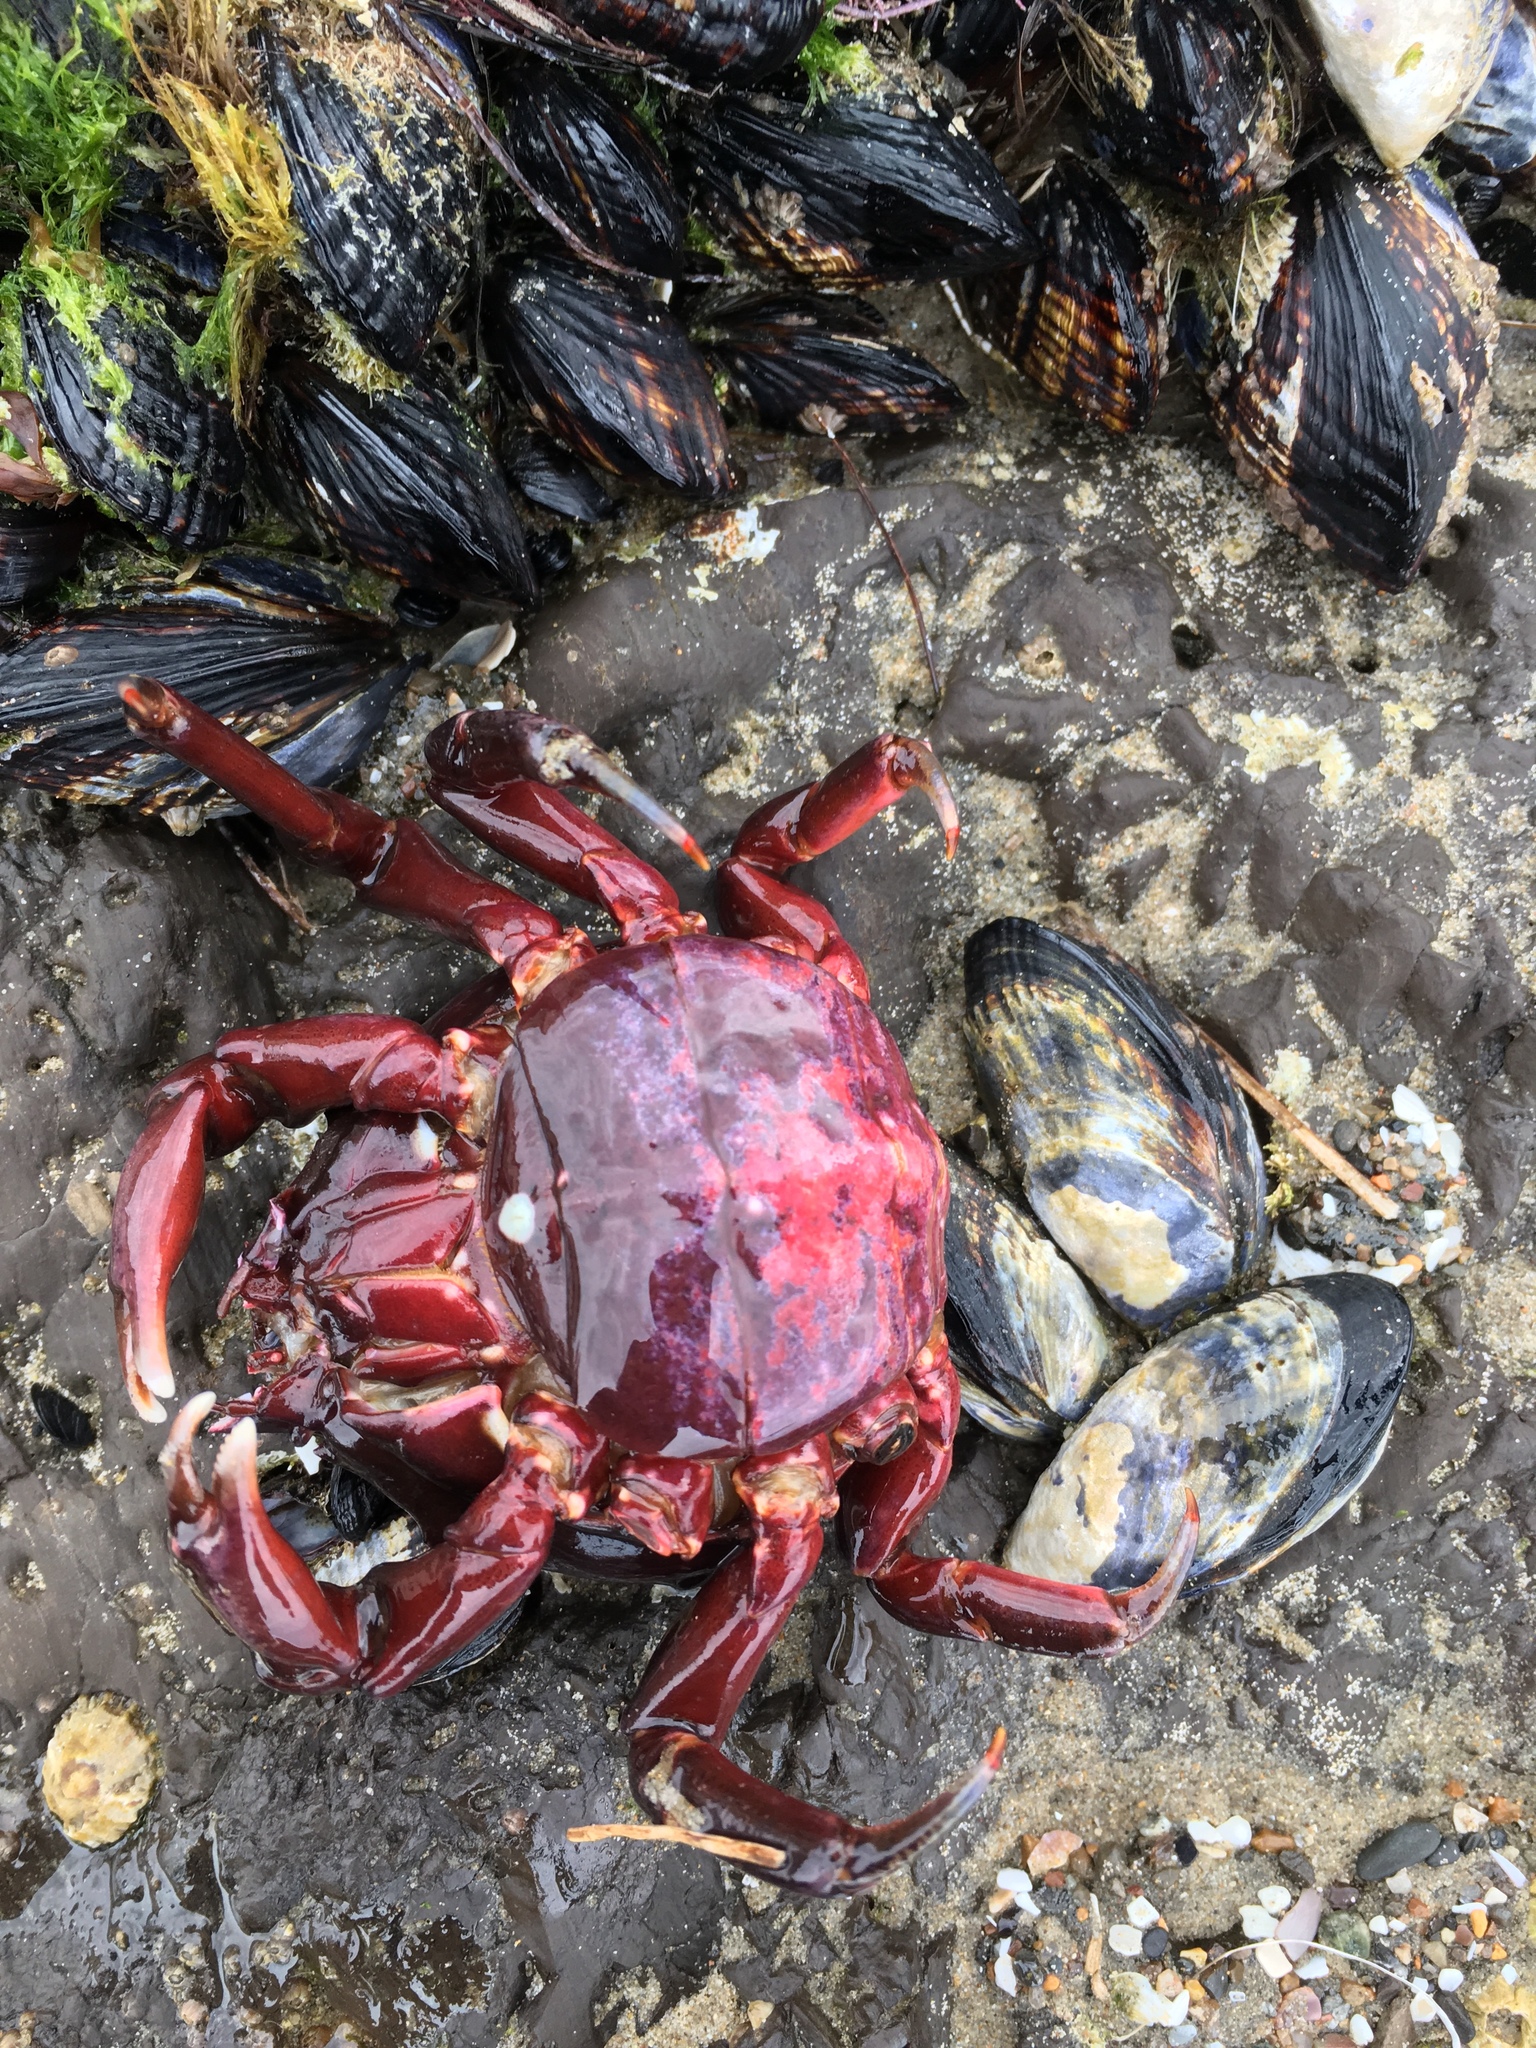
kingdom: Animalia
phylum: Arthropoda
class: Malacostraca
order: Decapoda
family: Epialtidae
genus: Taliepus
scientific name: Taliepus nuttallii
